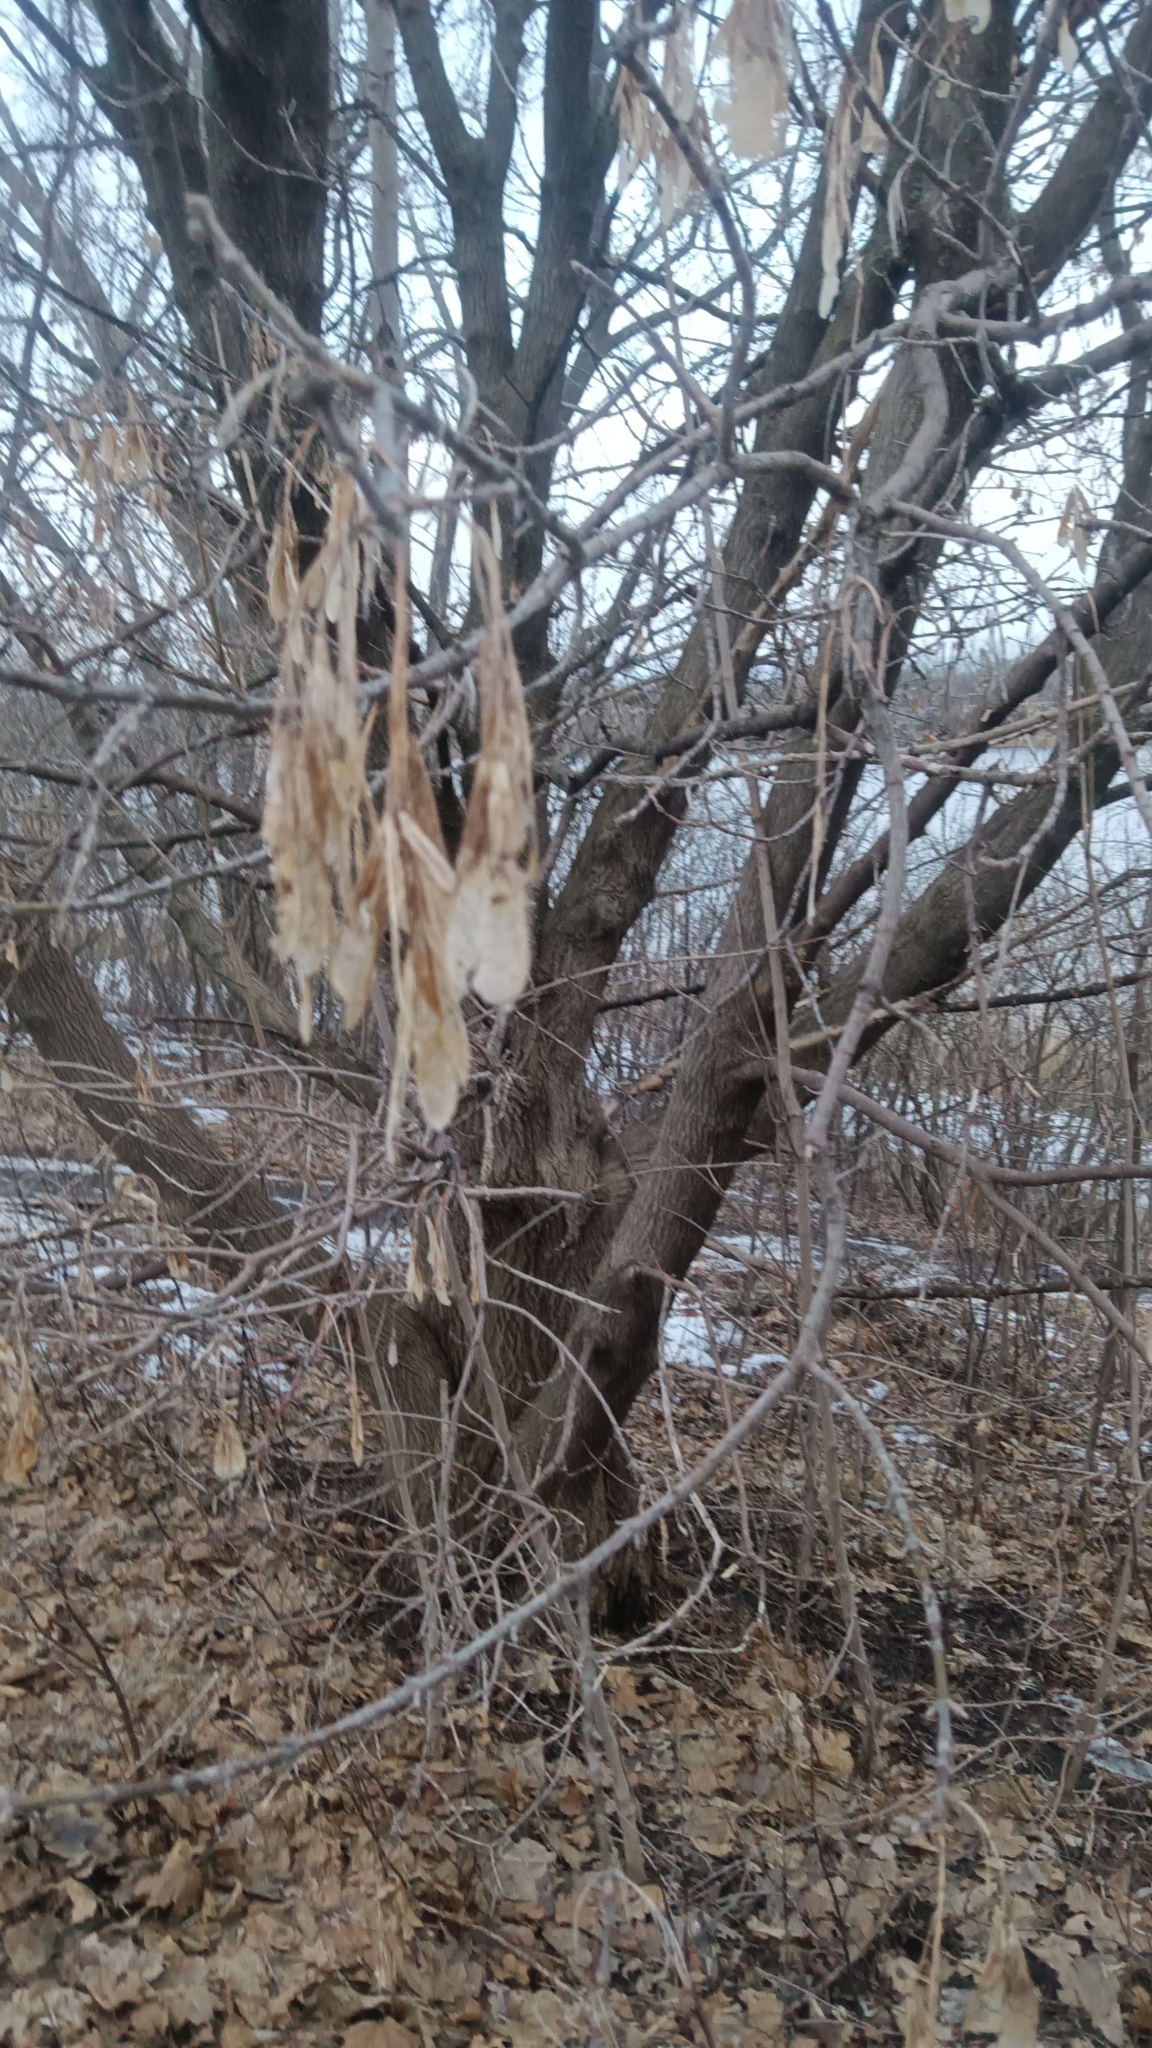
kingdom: Plantae
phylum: Tracheophyta
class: Magnoliopsida
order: Sapindales
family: Sapindaceae
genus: Acer
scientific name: Acer negundo
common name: Ashleaf maple
